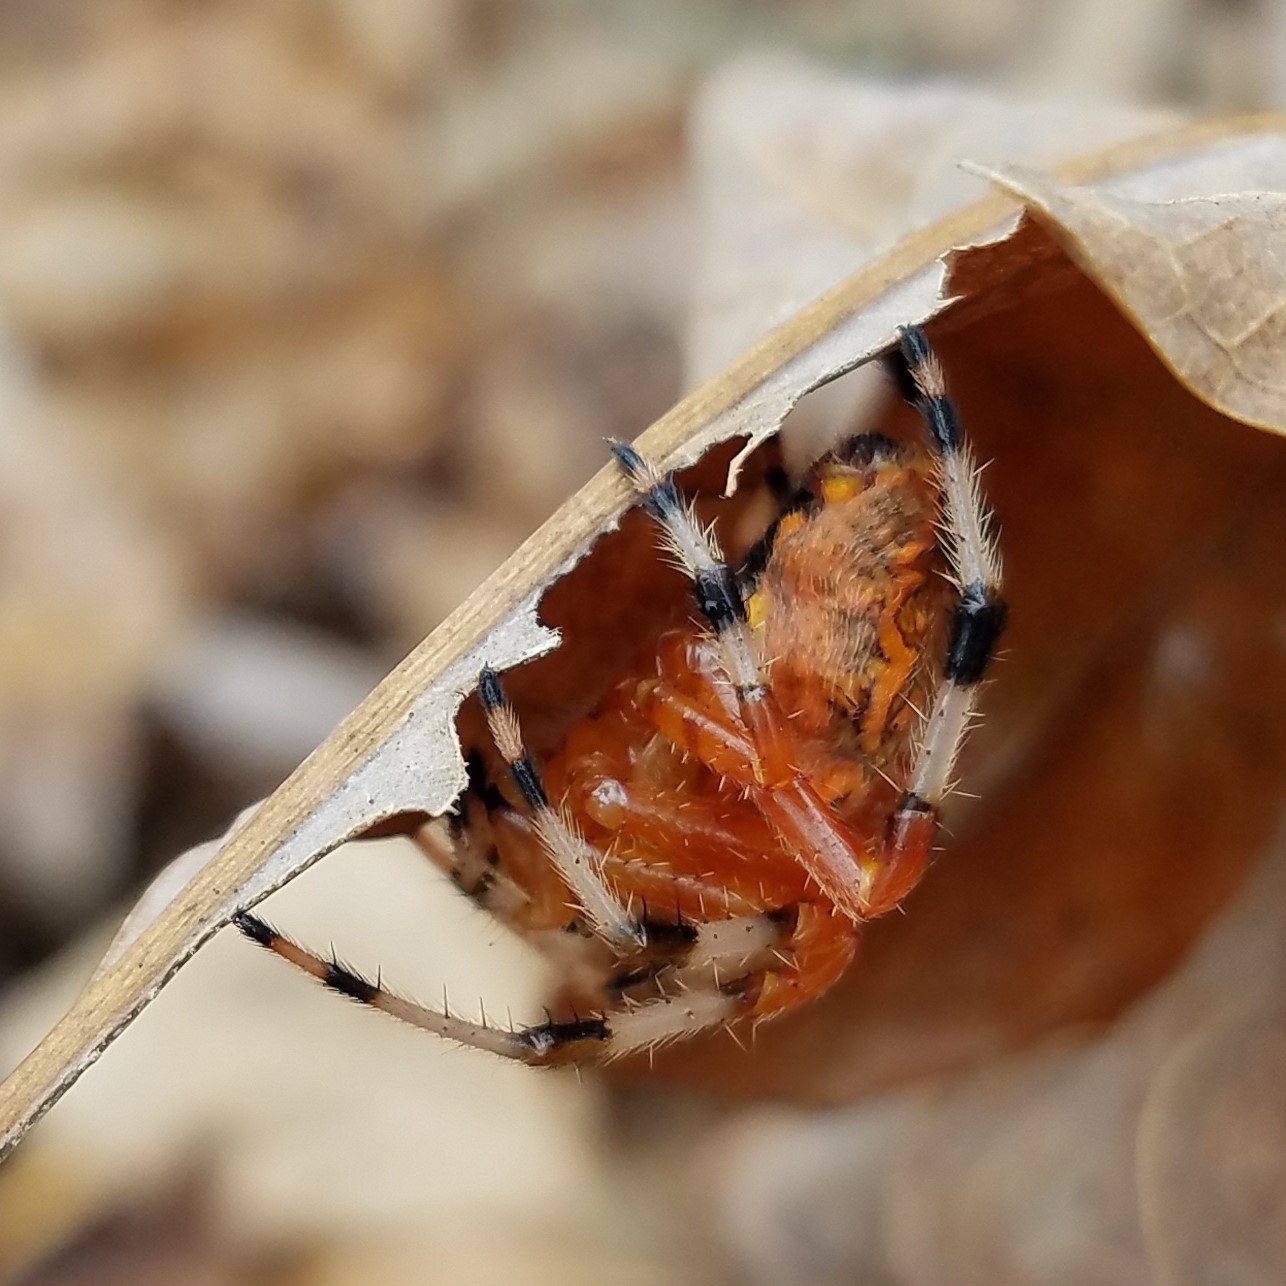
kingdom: Animalia
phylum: Arthropoda
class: Arachnida
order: Araneae
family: Araneidae
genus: Araneus
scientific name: Araneus marmoreus
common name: Marbled orbweaver
